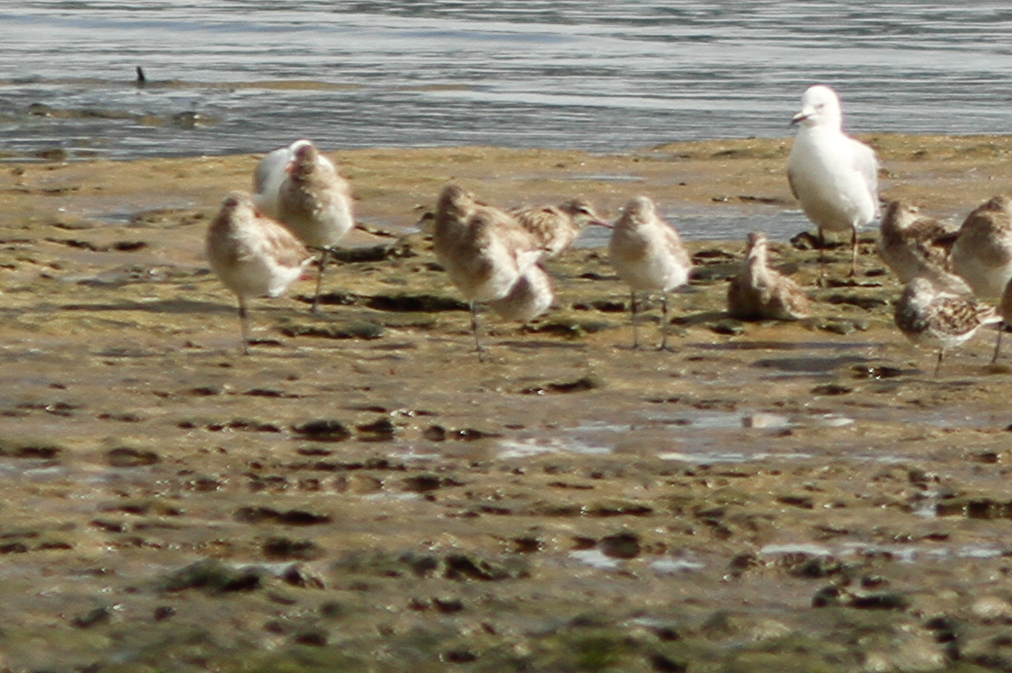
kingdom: Animalia
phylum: Chordata
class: Aves
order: Charadriiformes
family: Scolopacidae
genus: Limosa
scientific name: Limosa lapponica
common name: Bar-tailed godwit
